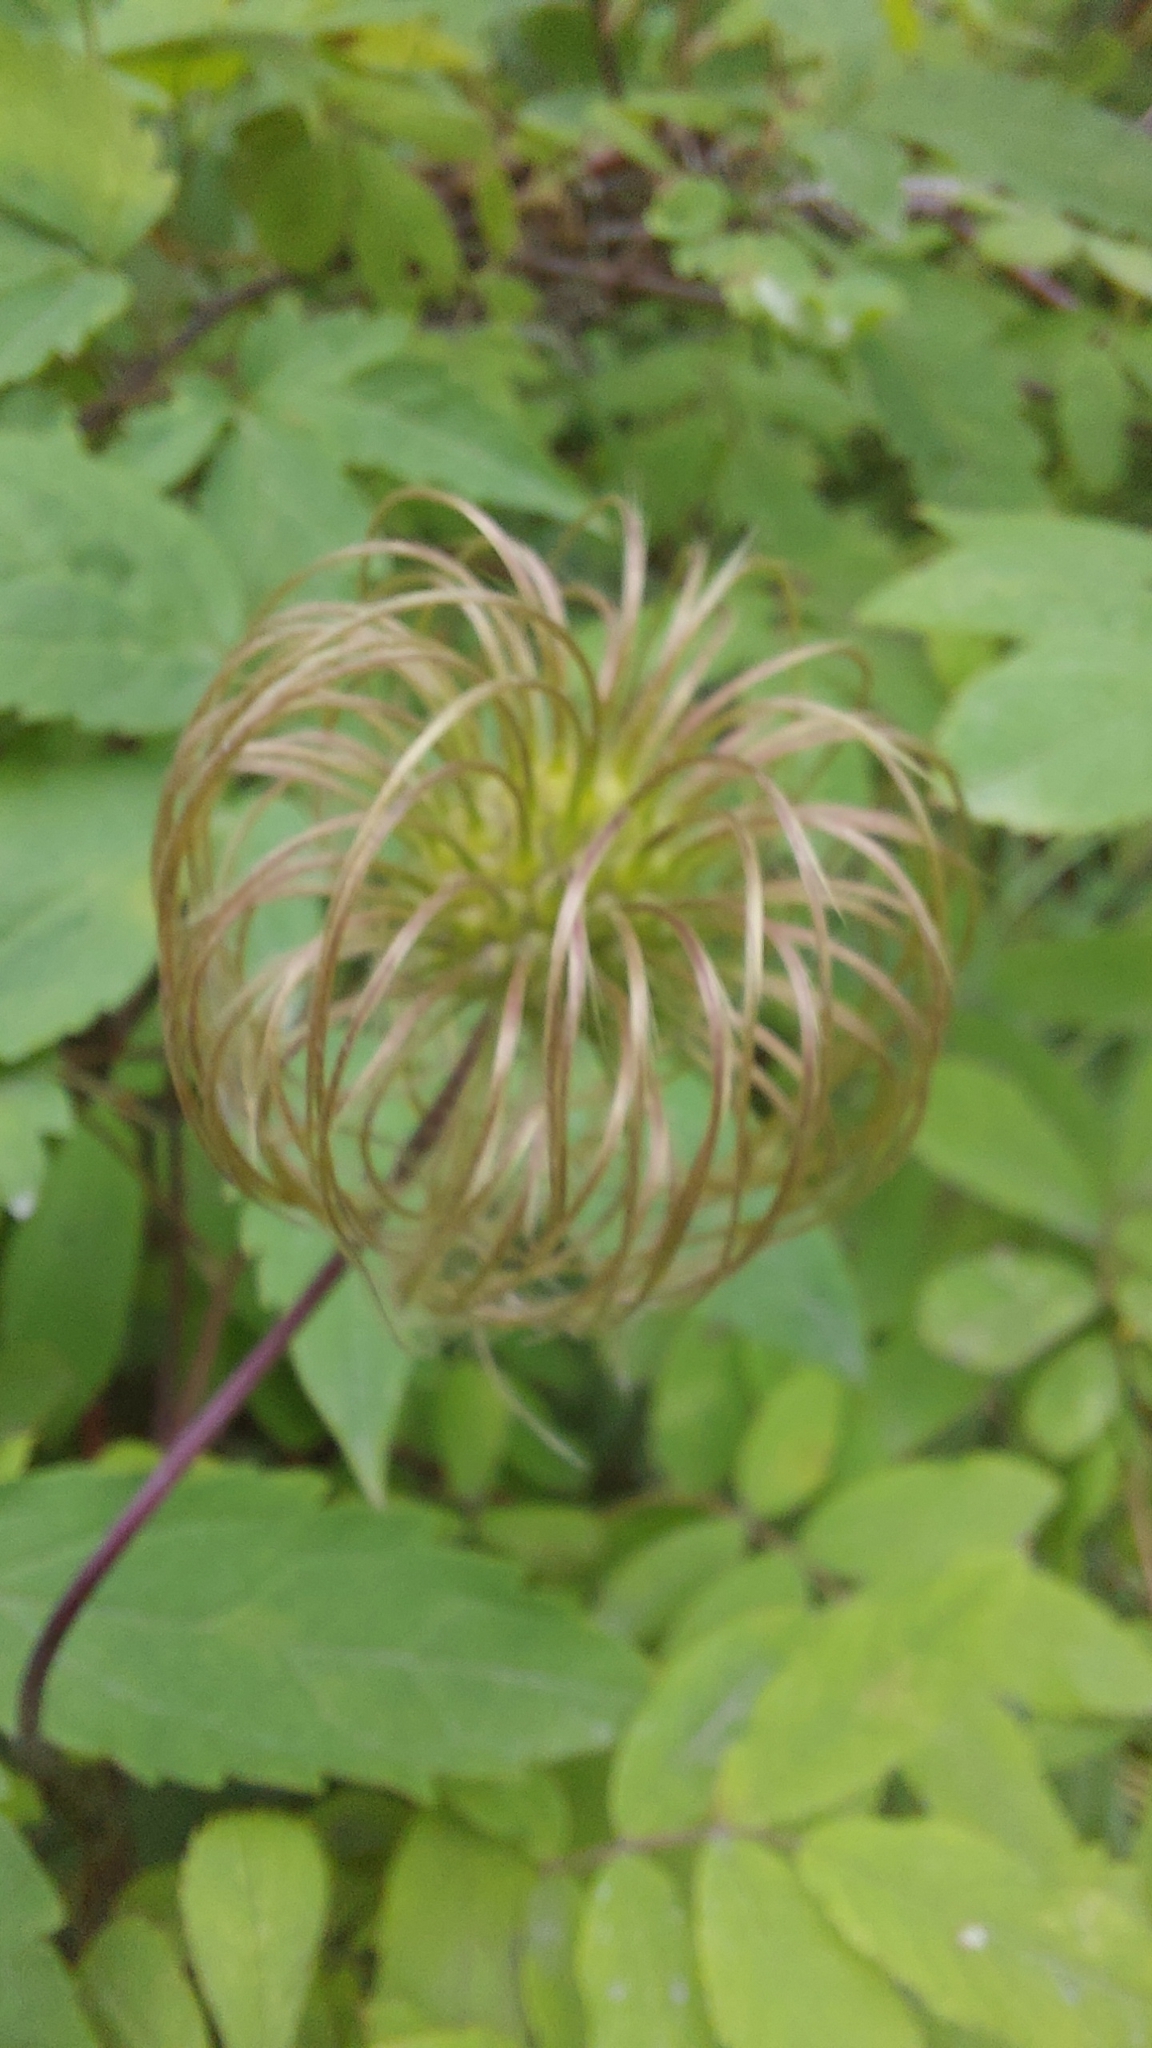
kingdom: Plantae
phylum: Tracheophyta
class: Magnoliopsida
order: Ranunculales
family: Ranunculaceae
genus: Clematis
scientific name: Clematis ochotensis
